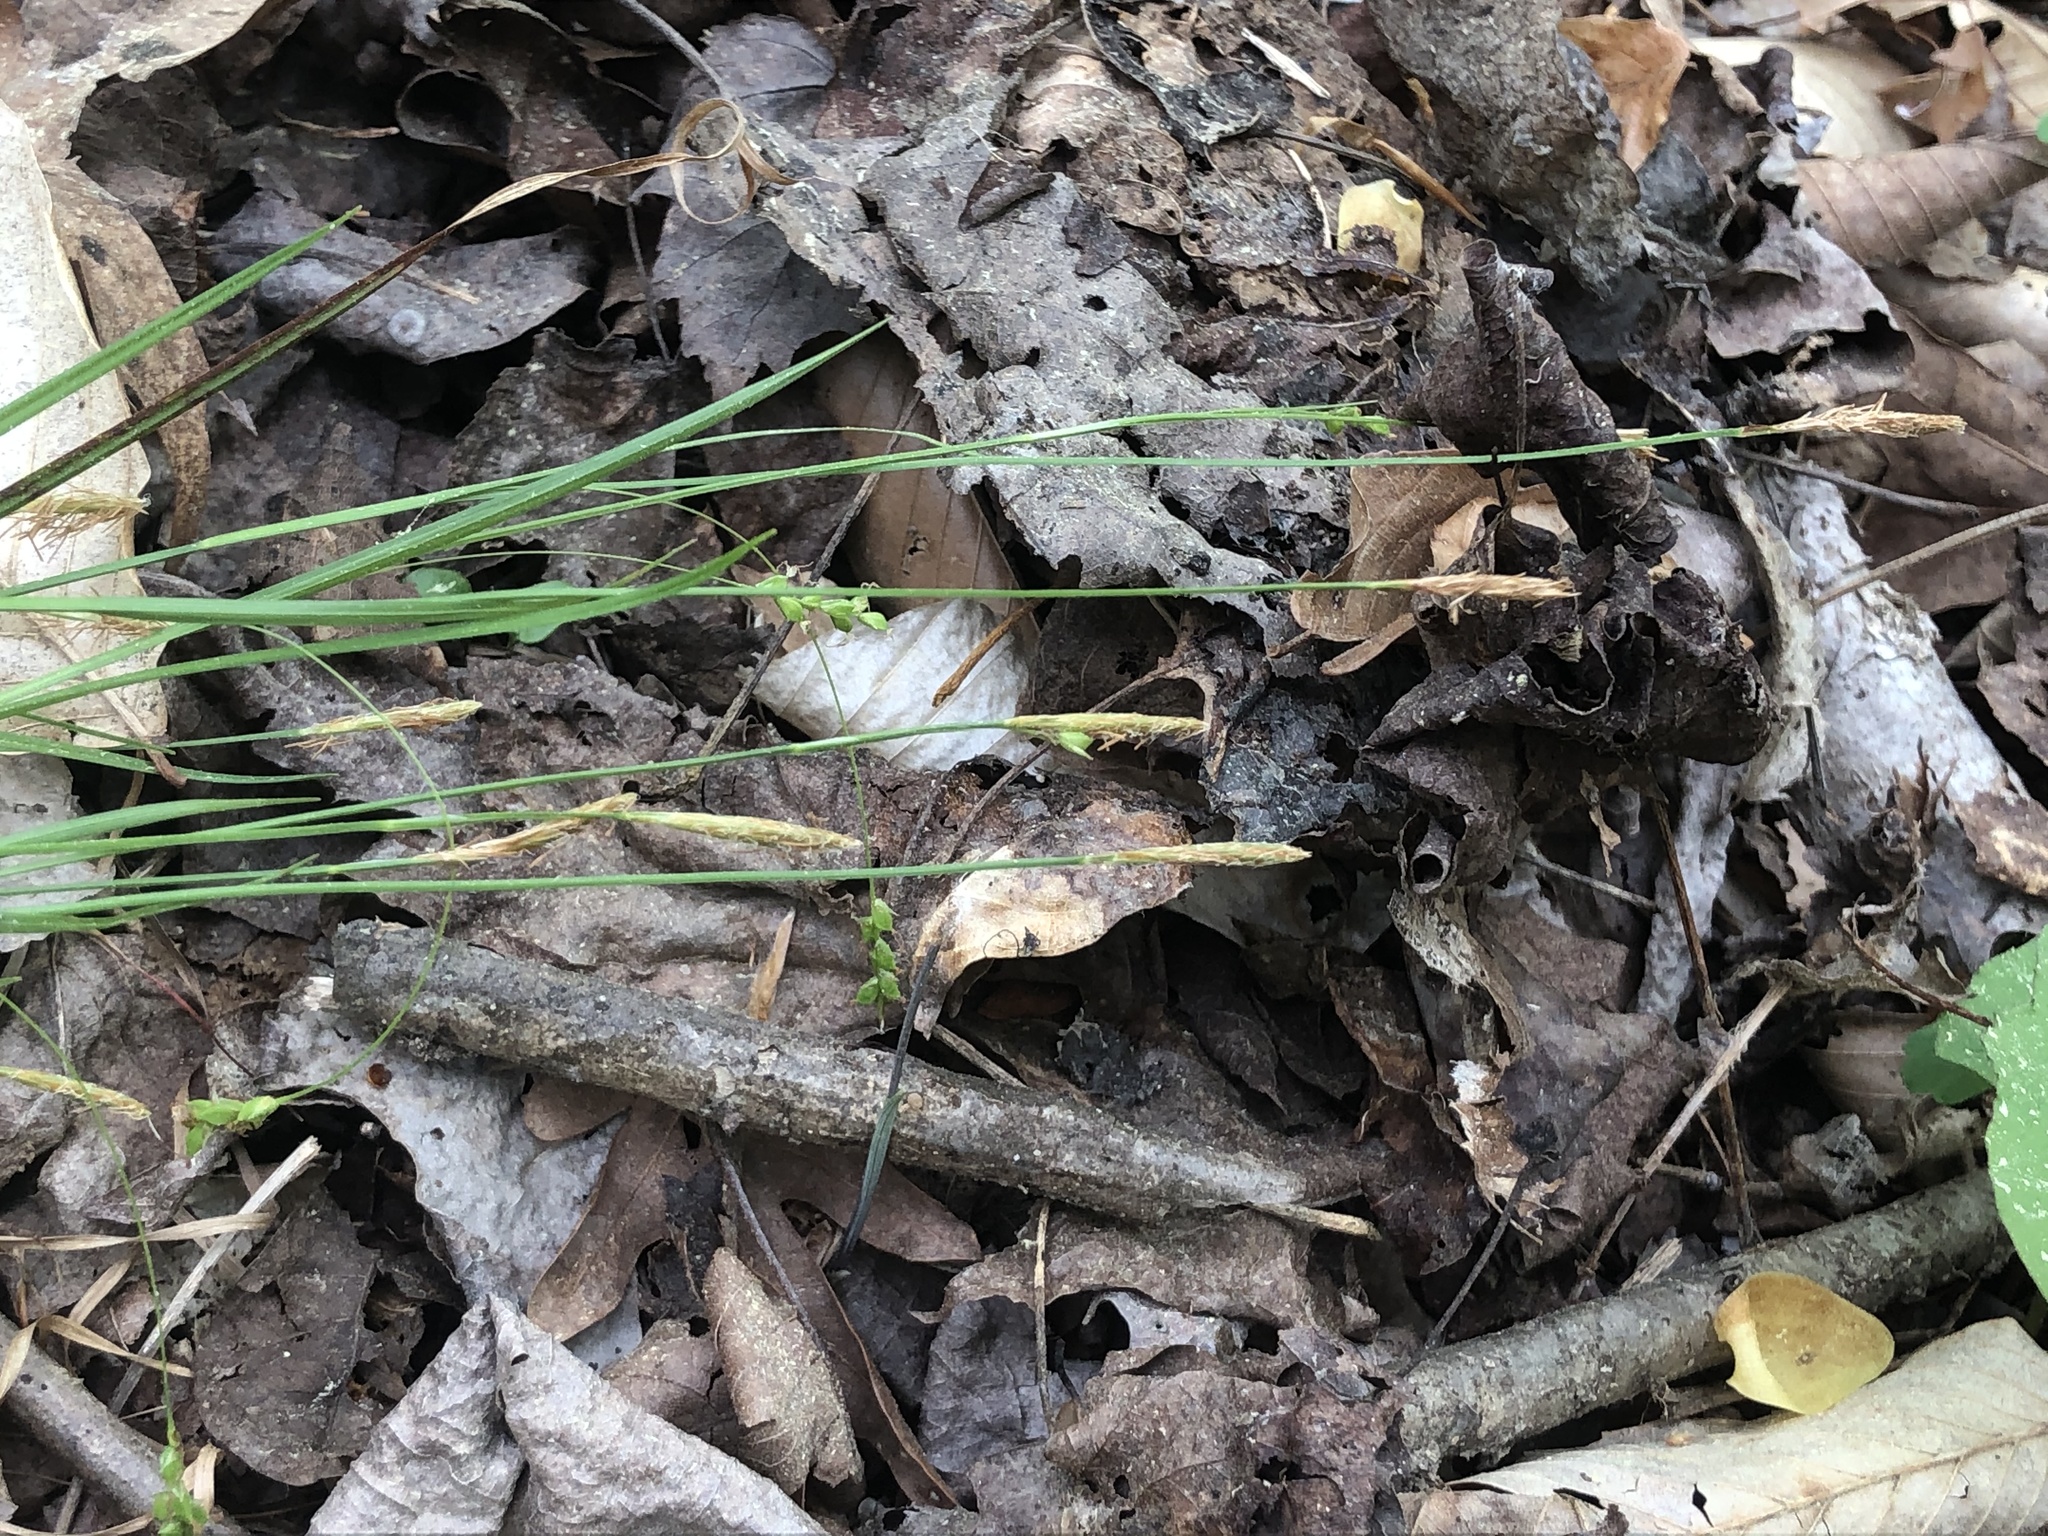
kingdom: Plantae
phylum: Tracheophyta
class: Liliopsida
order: Poales
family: Cyperaceae
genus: Carex
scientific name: Carex digitalis
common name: Slender wood sedge
